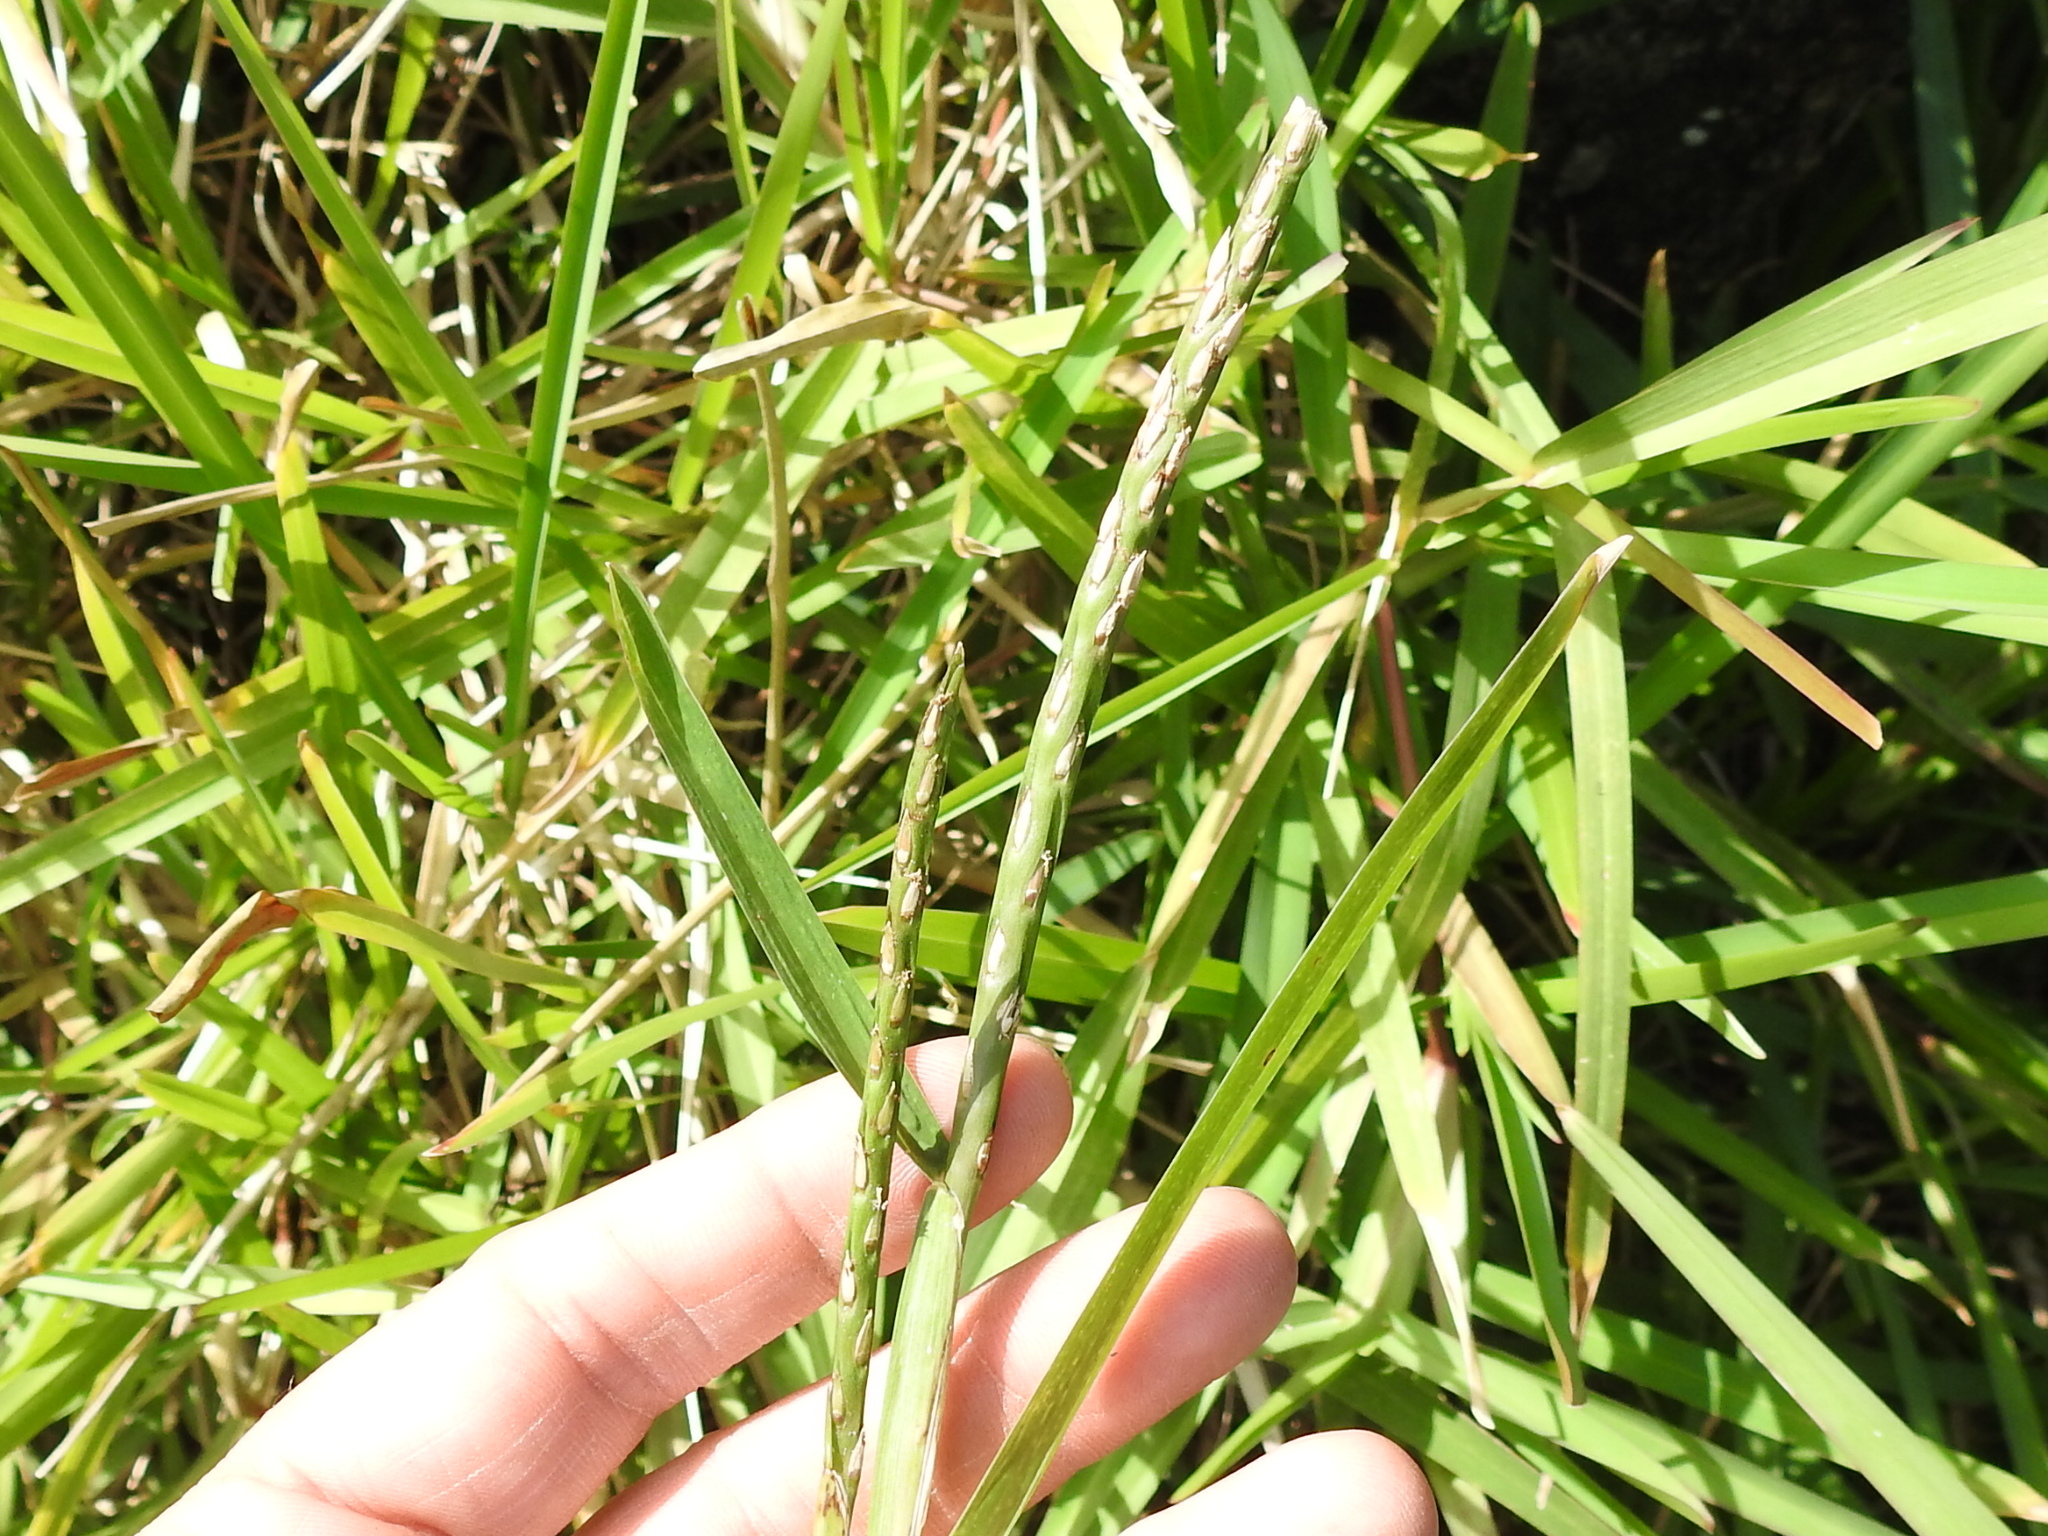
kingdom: Plantae
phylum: Tracheophyta
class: Liliopsida
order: Poales
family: Poaceae
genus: Stenotaphrum
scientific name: Stenotaphrum secundatum
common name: St. augustine grass
